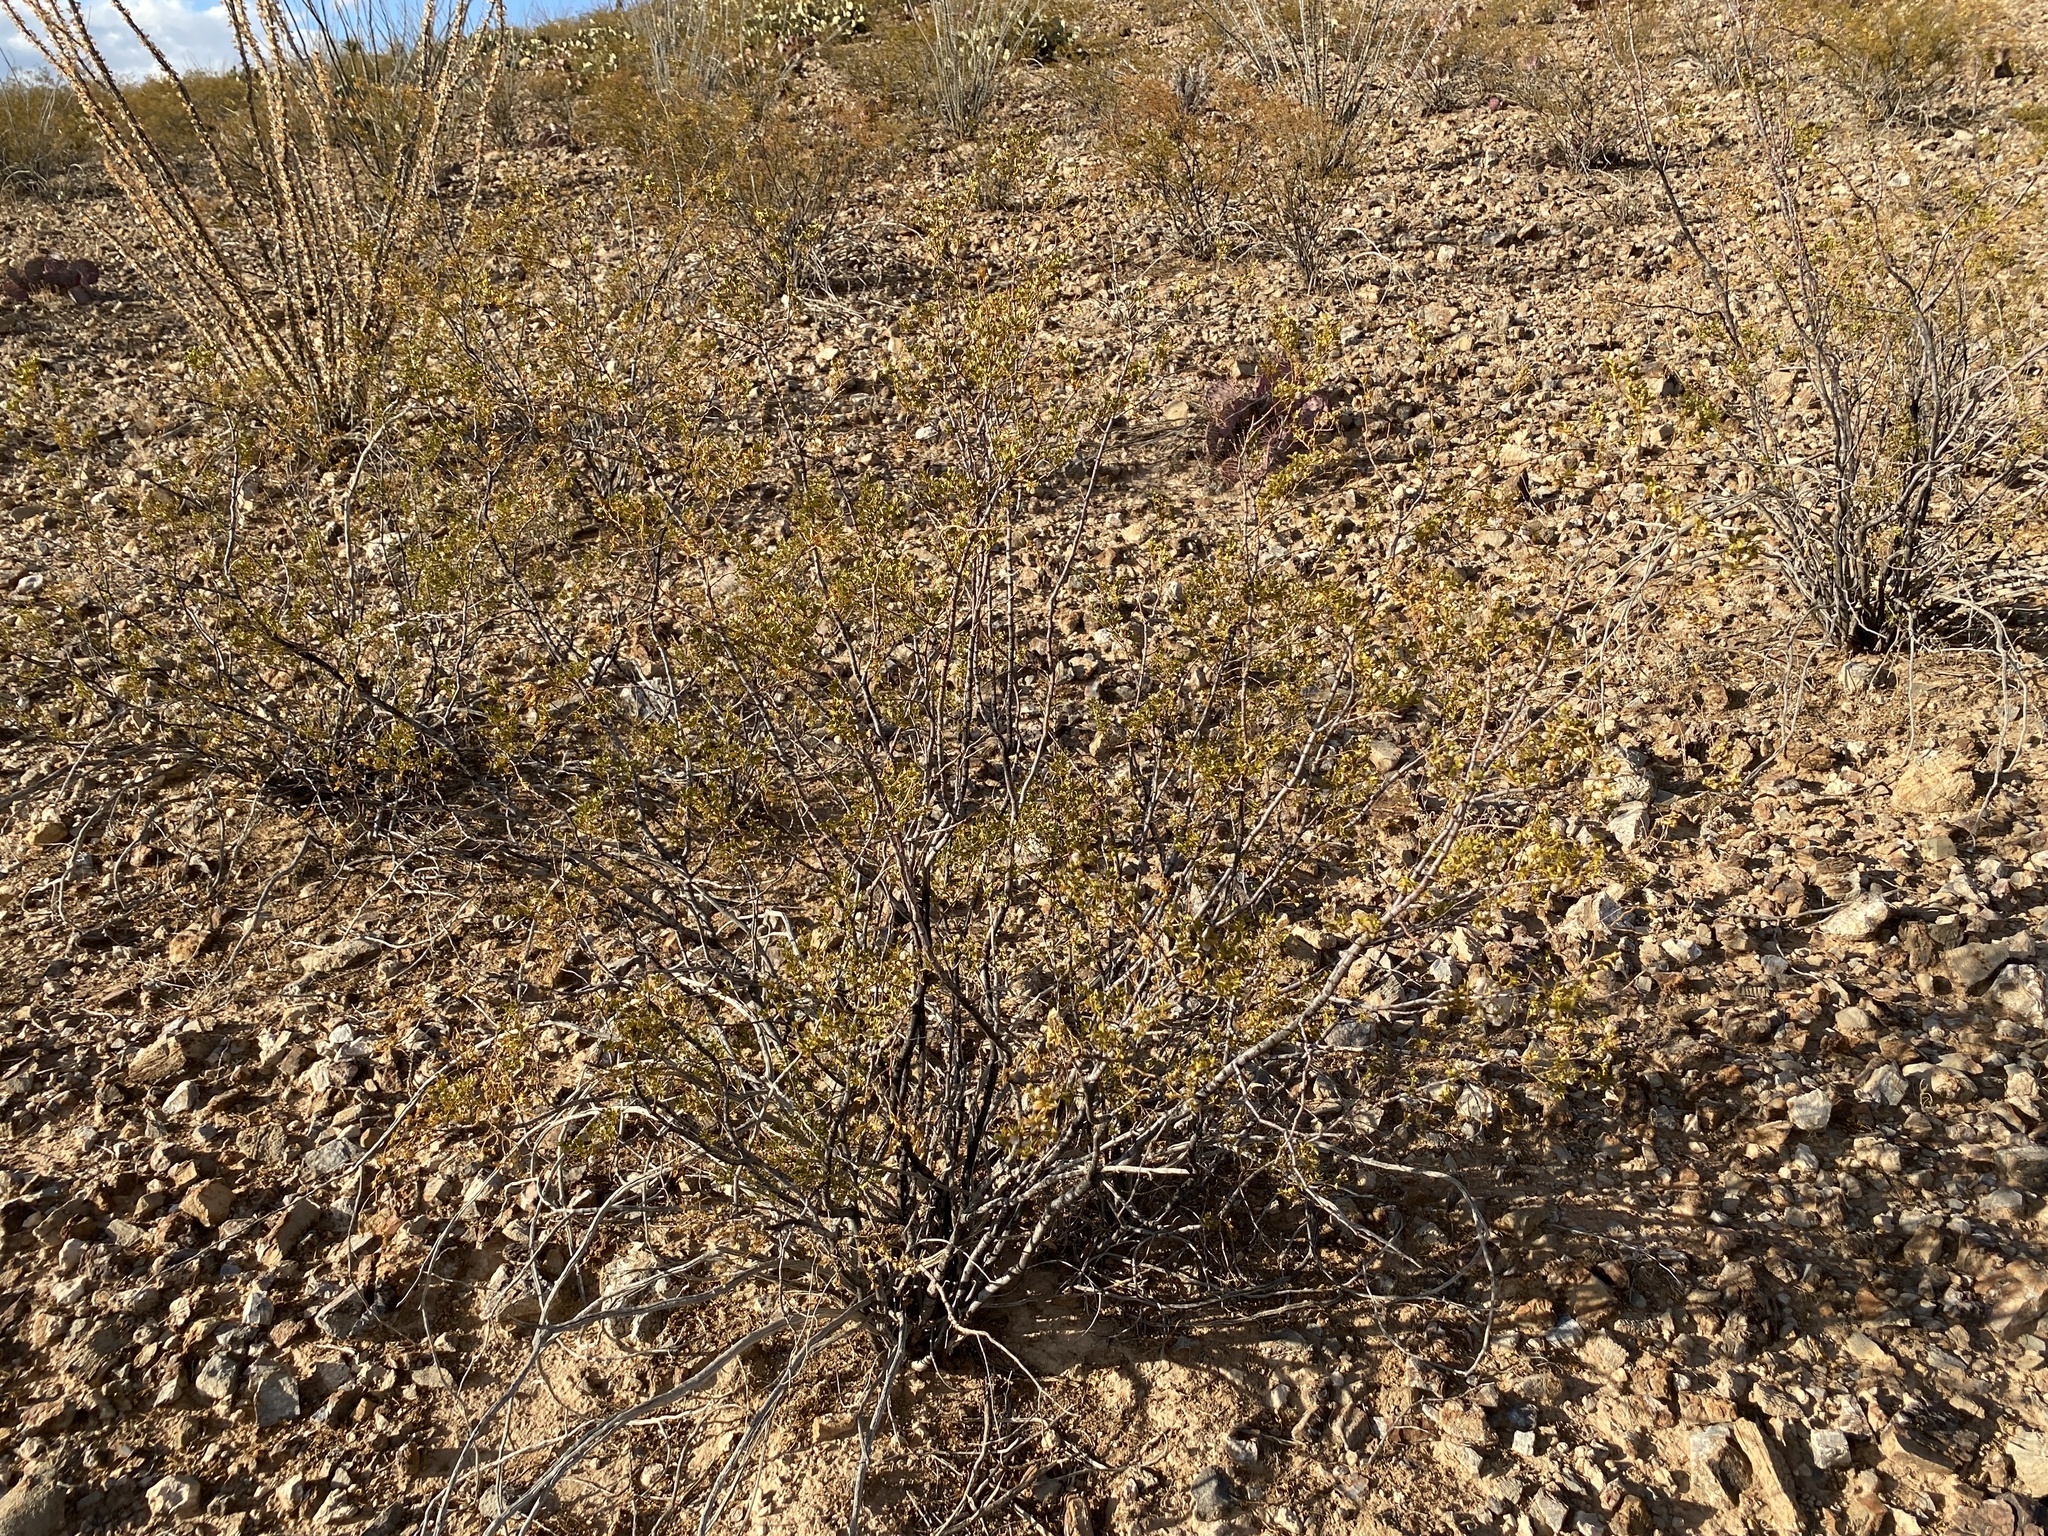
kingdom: Plantae
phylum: Tracheophyta
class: Magnoliopsida
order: Zygophyllales
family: Zygophyllaceae
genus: Larrea
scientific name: Larrea tridentata
